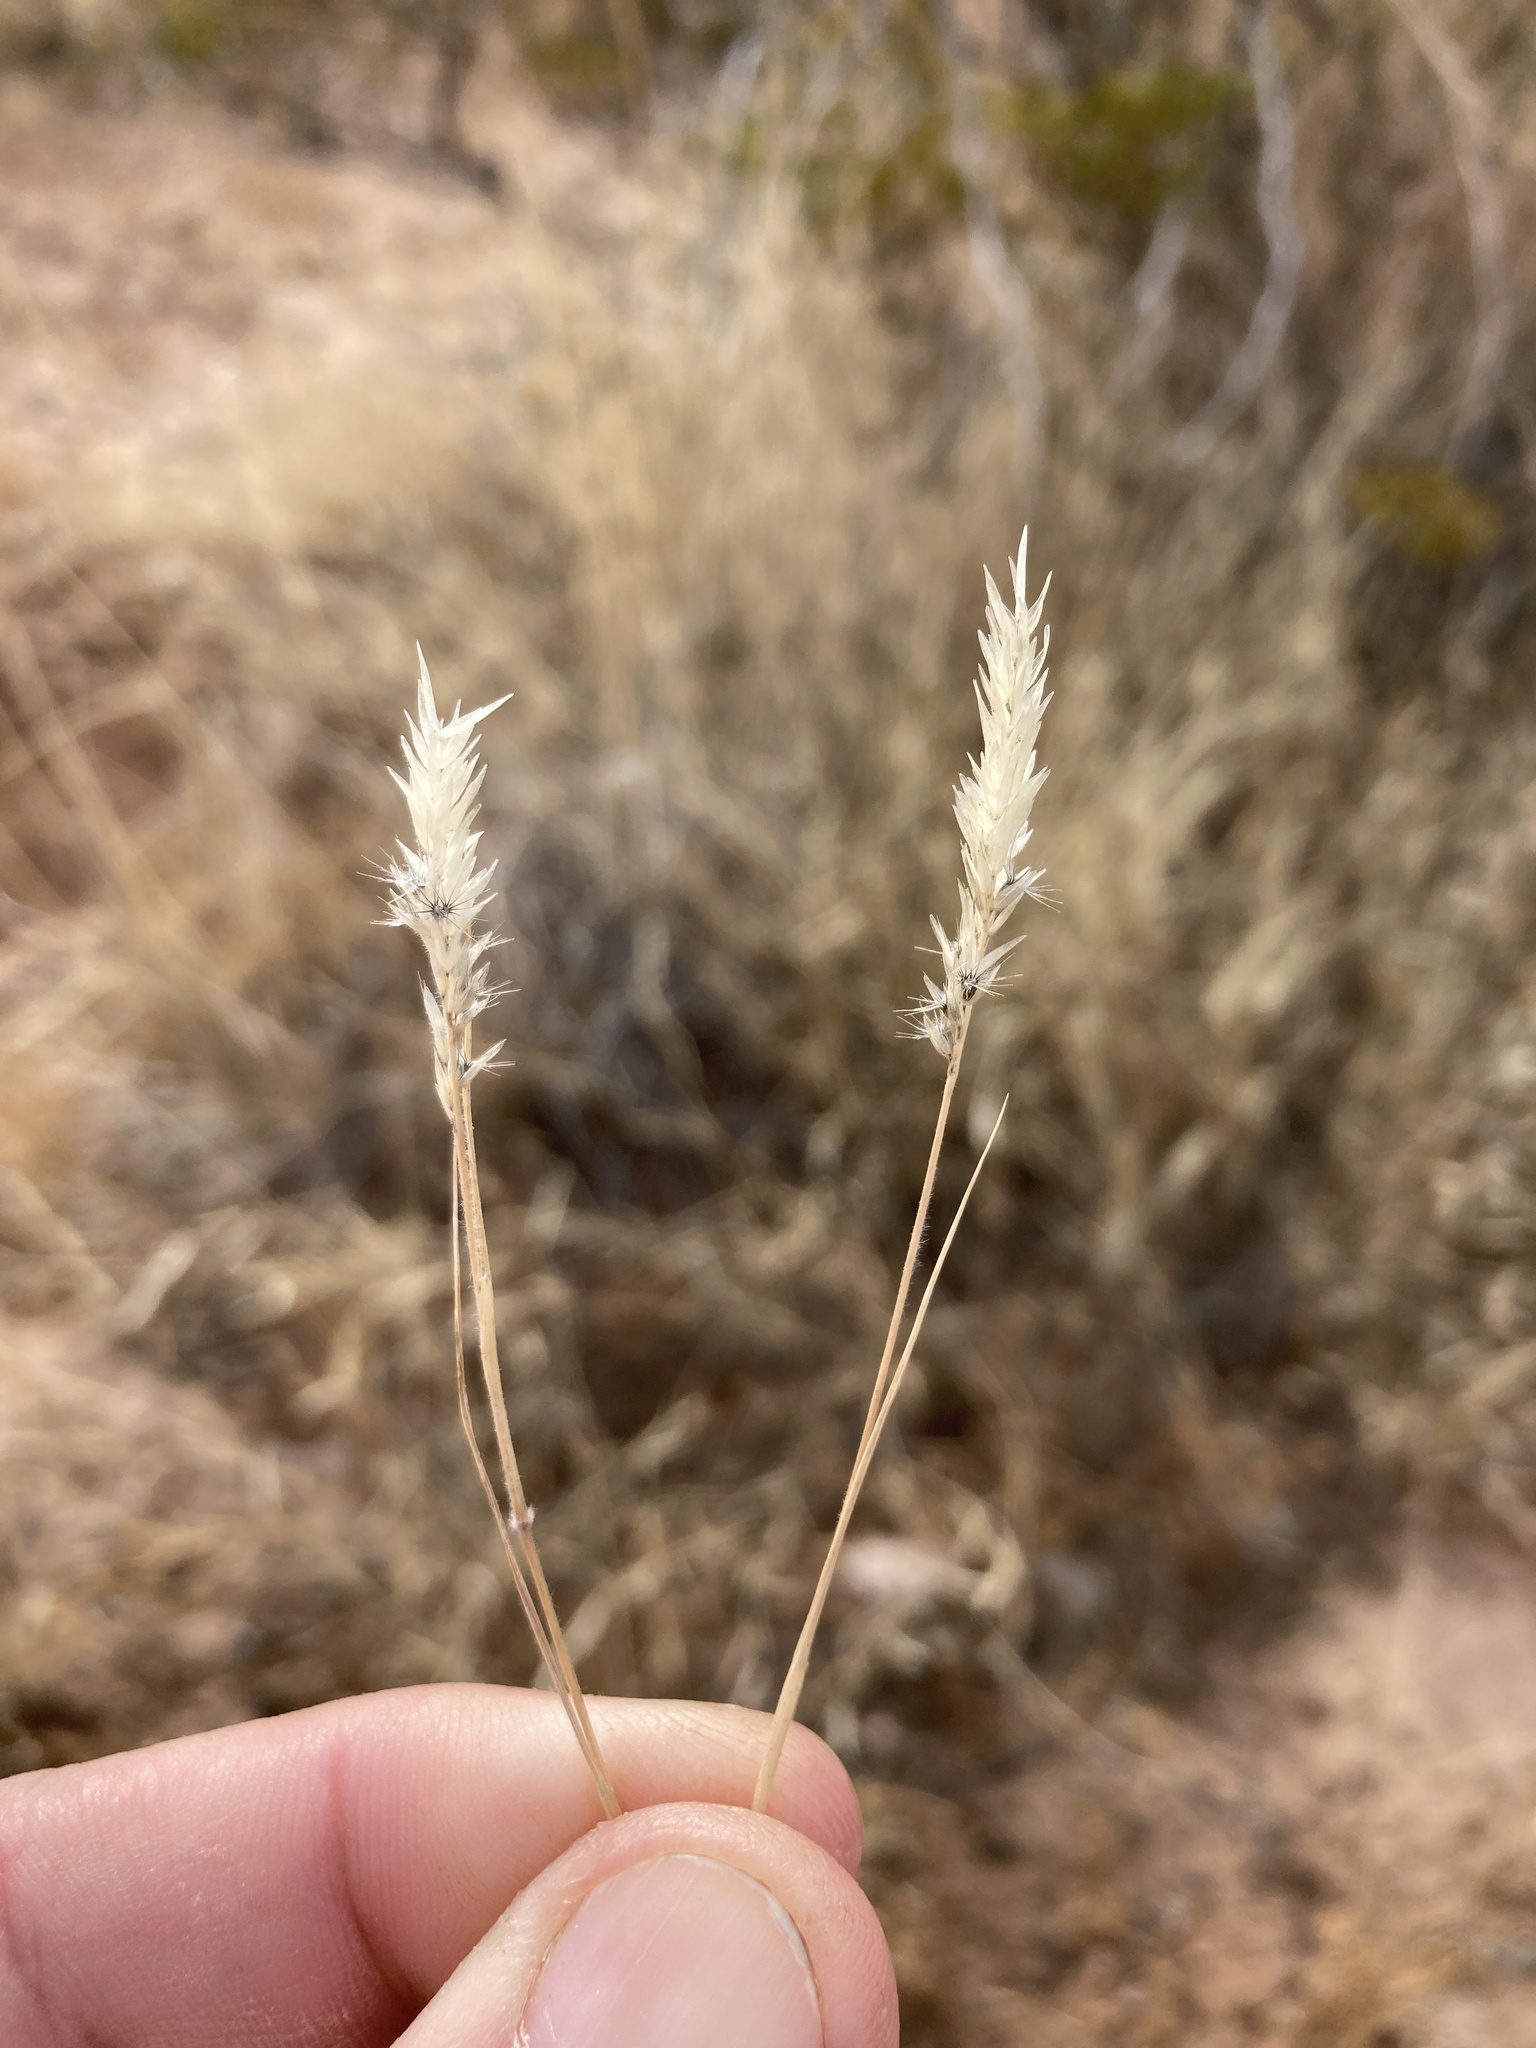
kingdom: Plantae
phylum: Tracheophyta
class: Liliopsida
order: Poales
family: Poaceae
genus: Enneapogon
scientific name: Enneapogon desvauxii
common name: Feather pappus grass
